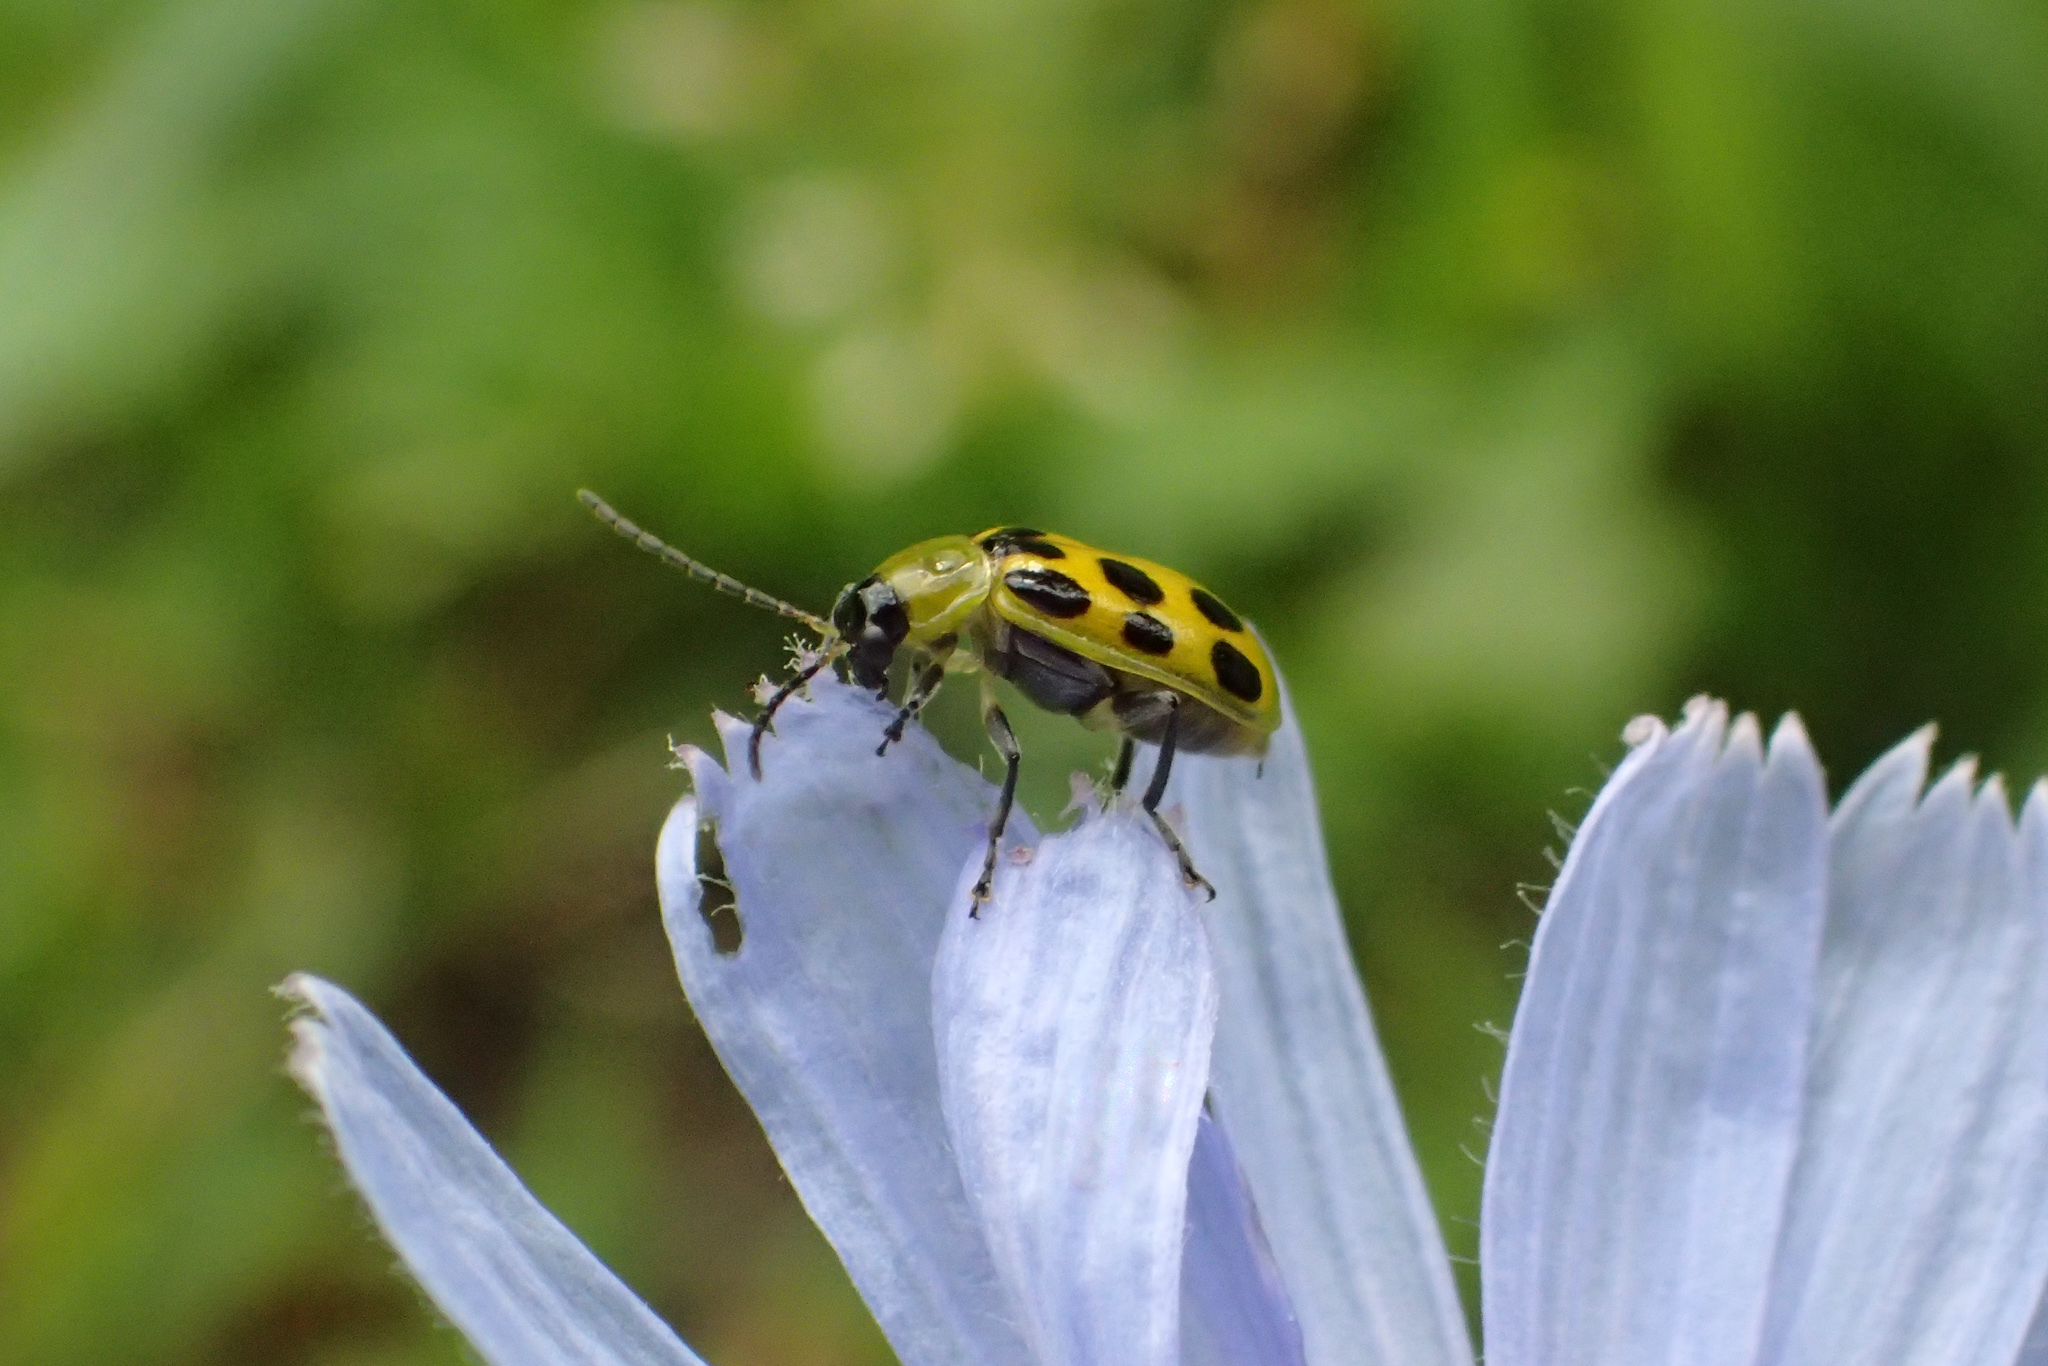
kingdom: Animalia
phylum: Arthropoda
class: Insecta
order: Coleoptera
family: Chrysomelidae
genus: Diabrotica
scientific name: Diabrotica undecimpunctata
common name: Spotted cucumber beetle
